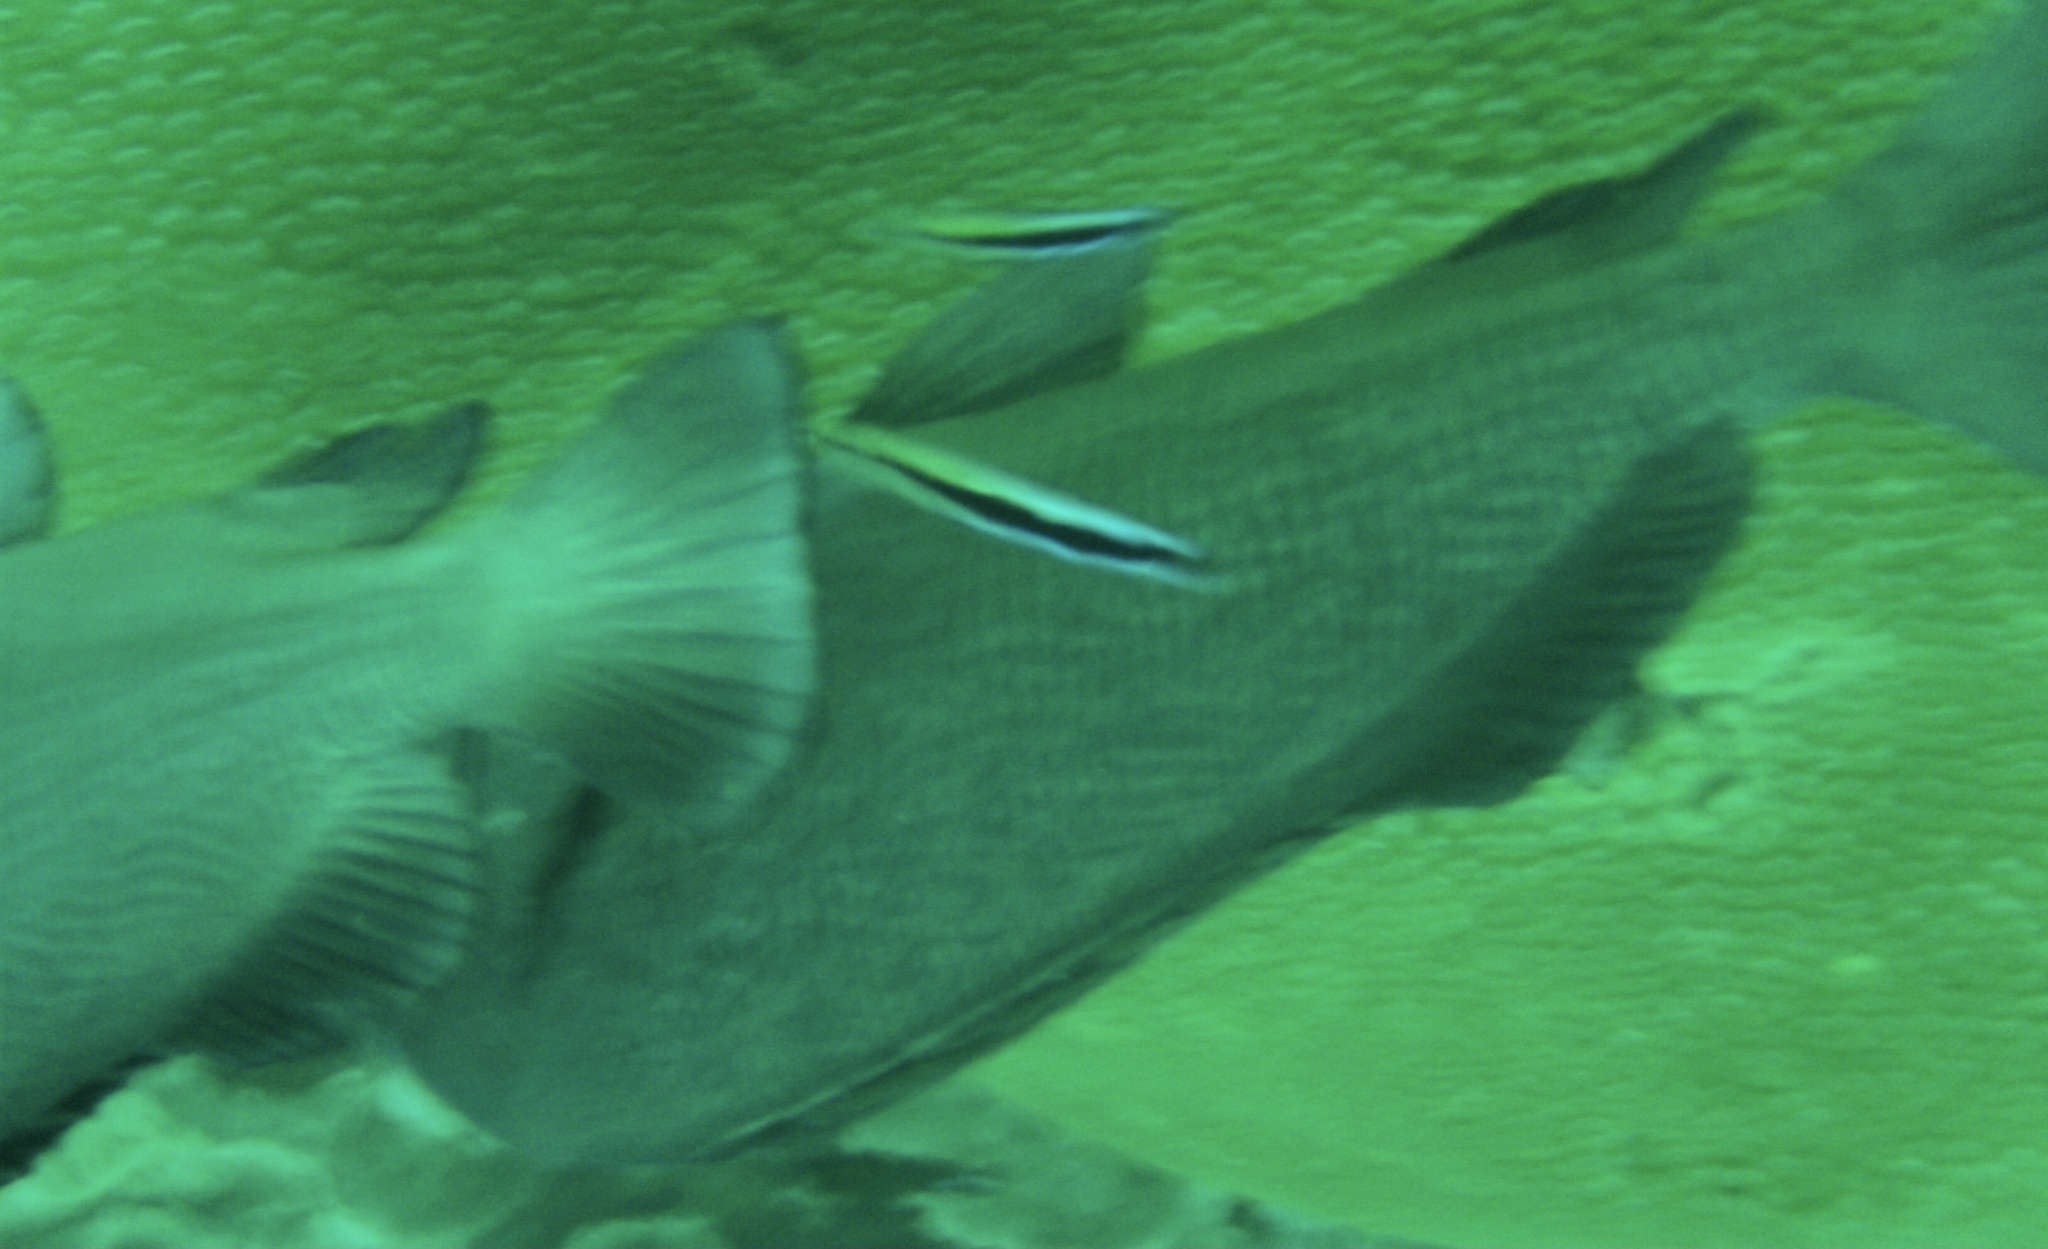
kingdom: Animalia
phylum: Chordata
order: Perciformes
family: Labridae
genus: Labroides
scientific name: Labroides dimidiatus
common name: Blue diesel wrasse
